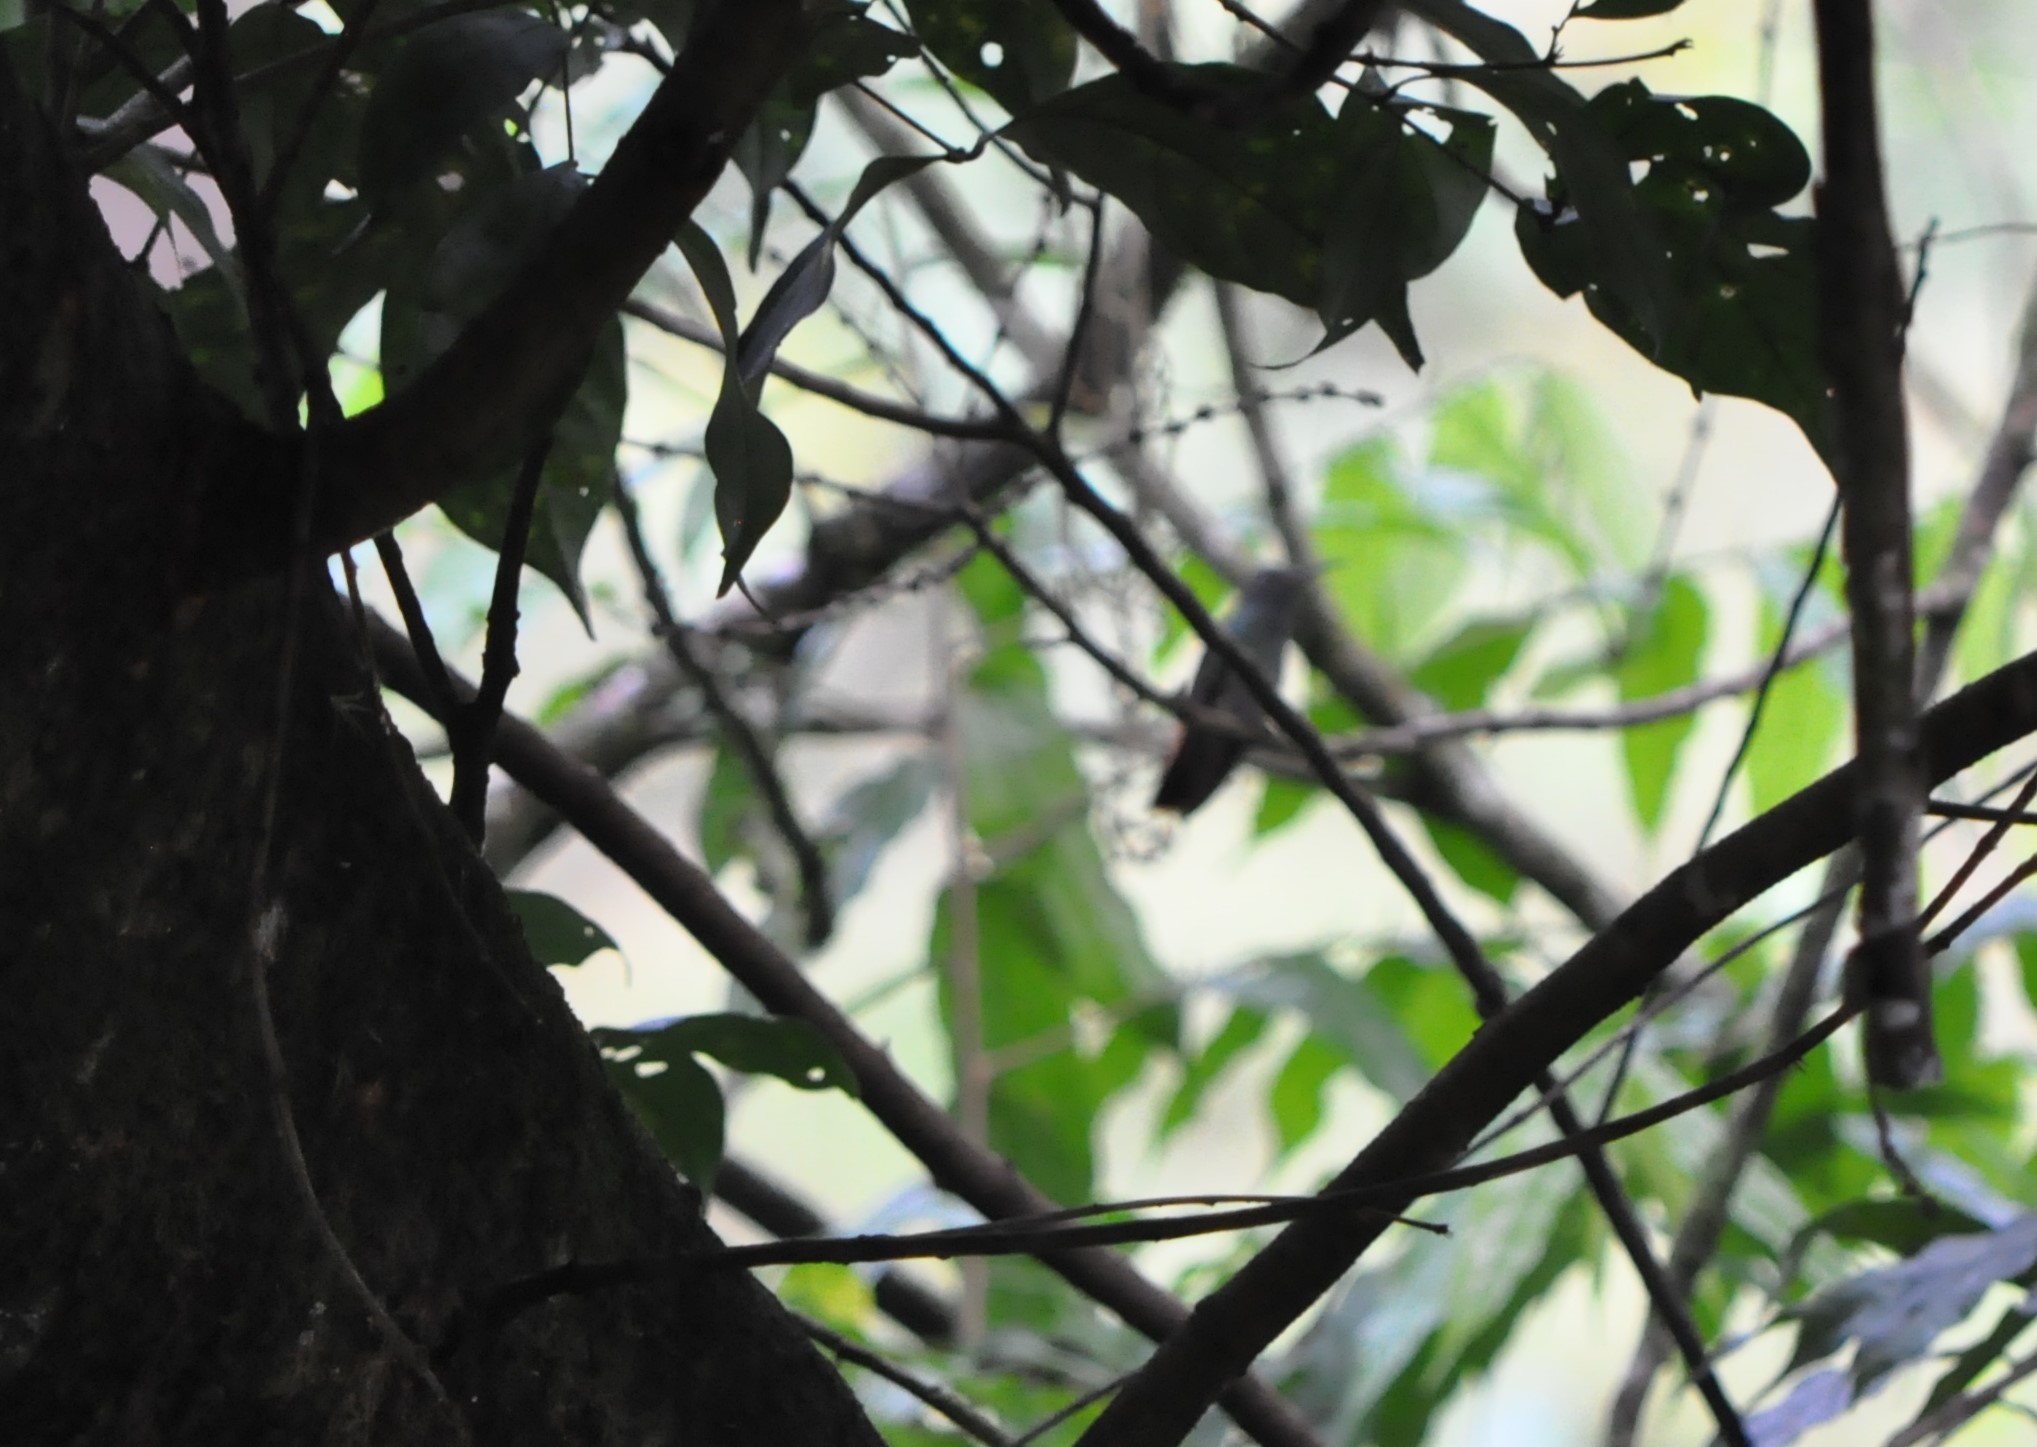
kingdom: Animalia
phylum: Chordata
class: Aves
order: Apodiformes
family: Trochilidae
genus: Amazilia
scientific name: Amazilia tzacatl
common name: Rufous-tailed hummingbird
